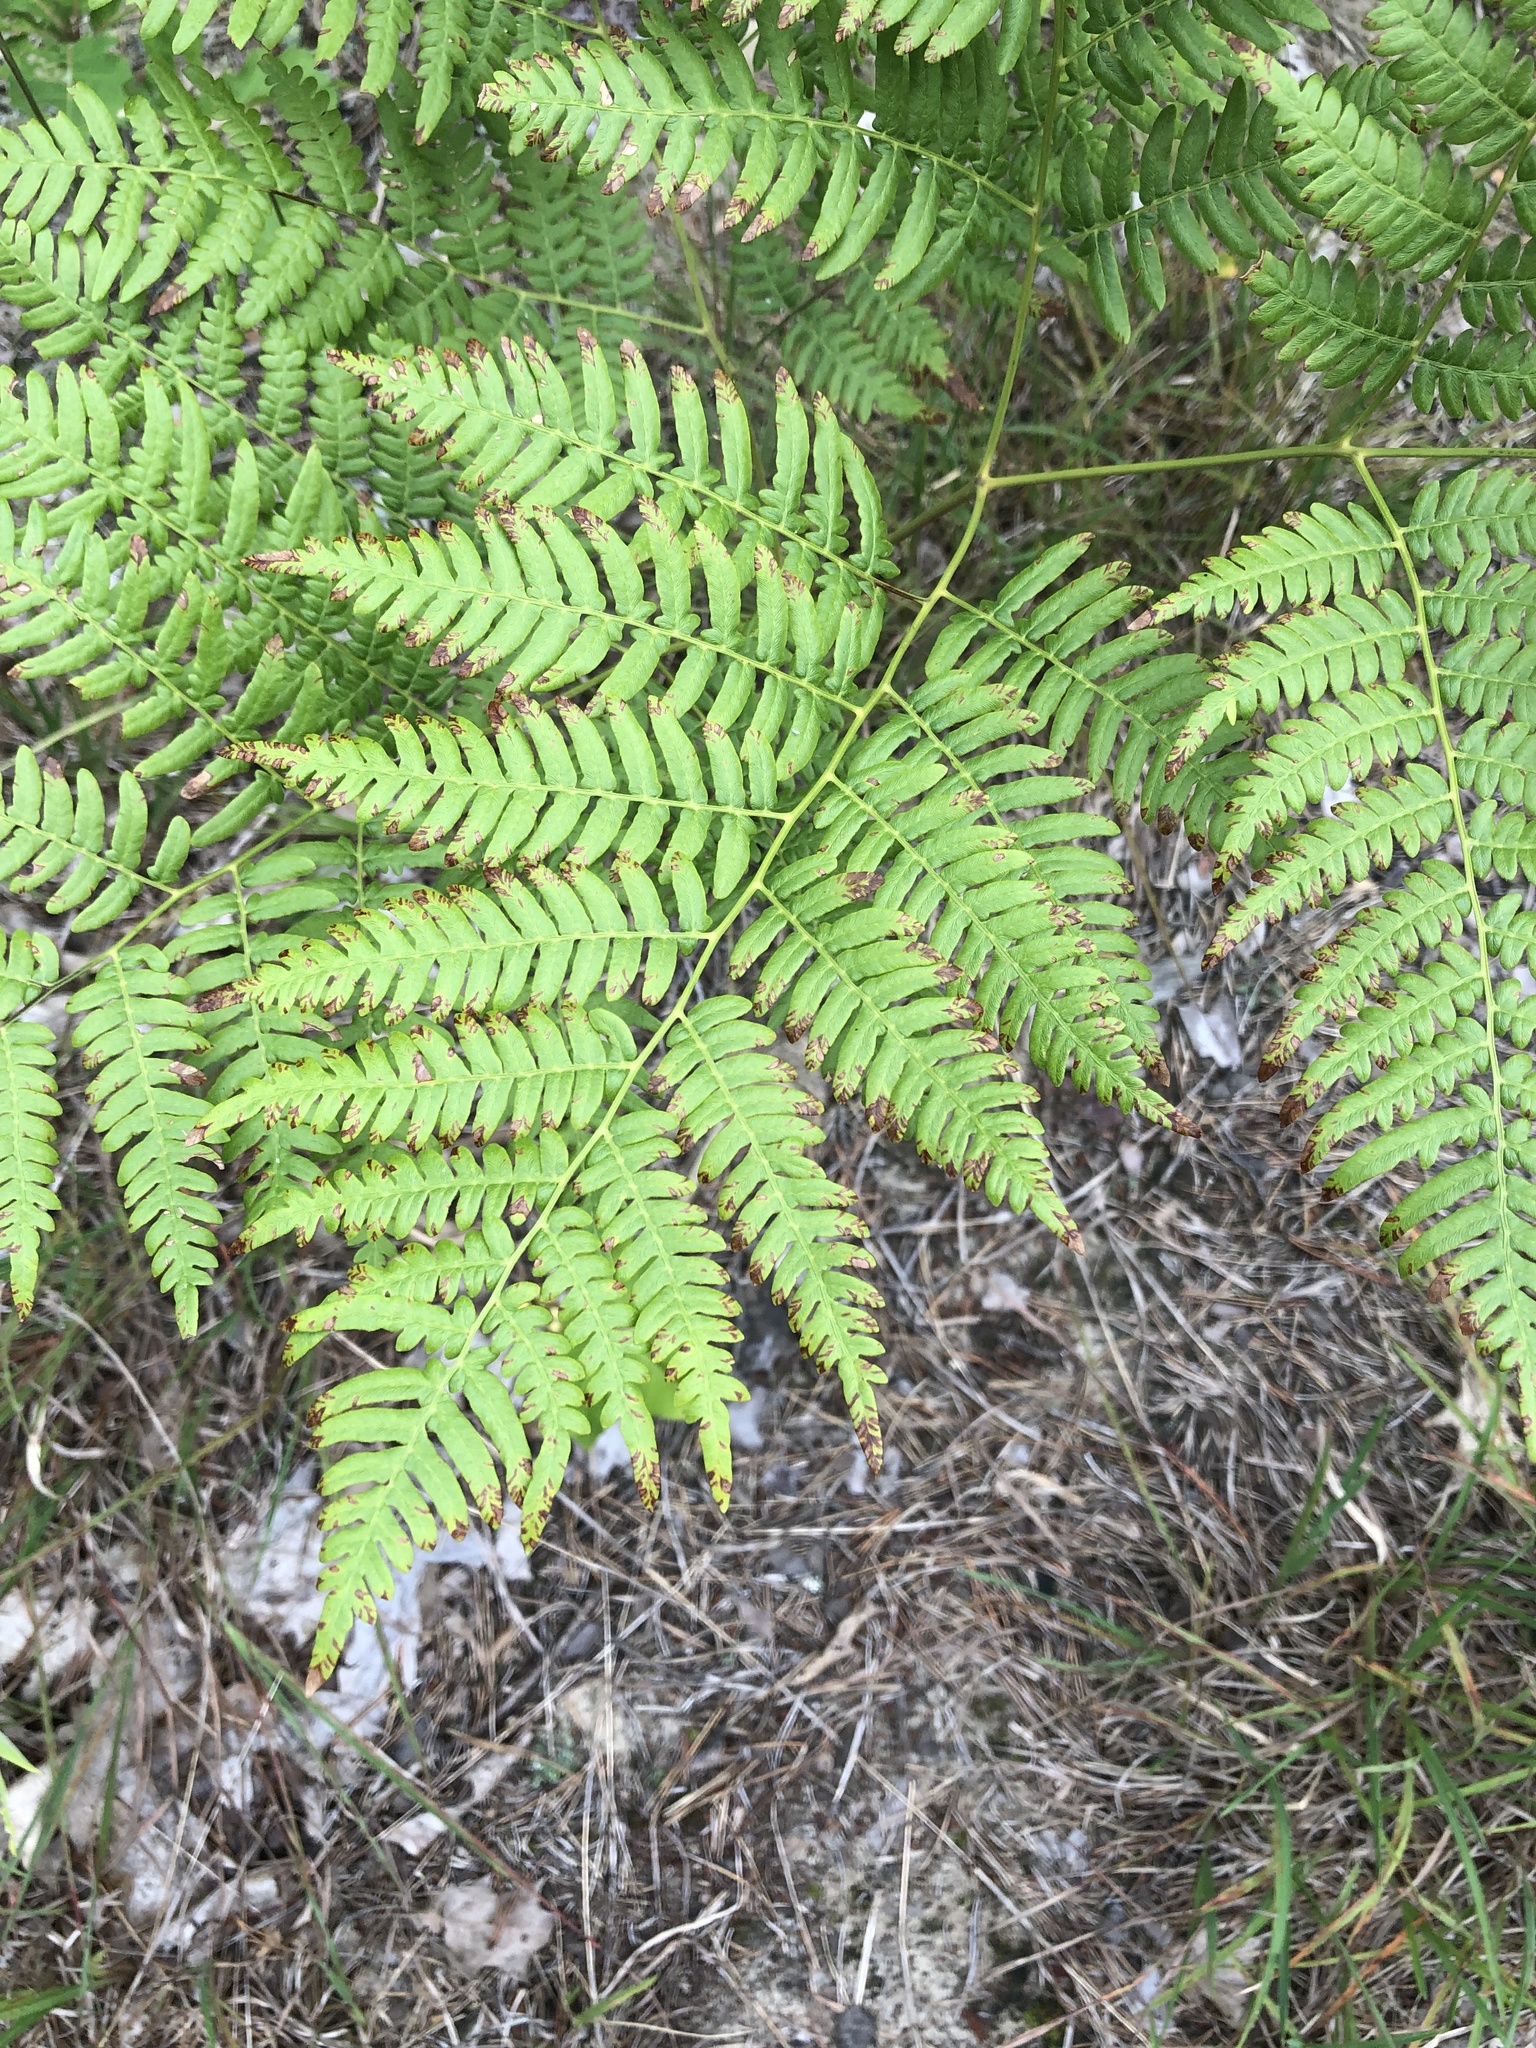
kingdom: Plantae
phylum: Tracheophyta
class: Polypodiopsida
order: Polypodiales
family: Dennstaedtiaceae
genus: Pteridium
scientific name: Pteridium aquilinum
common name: Bracken
